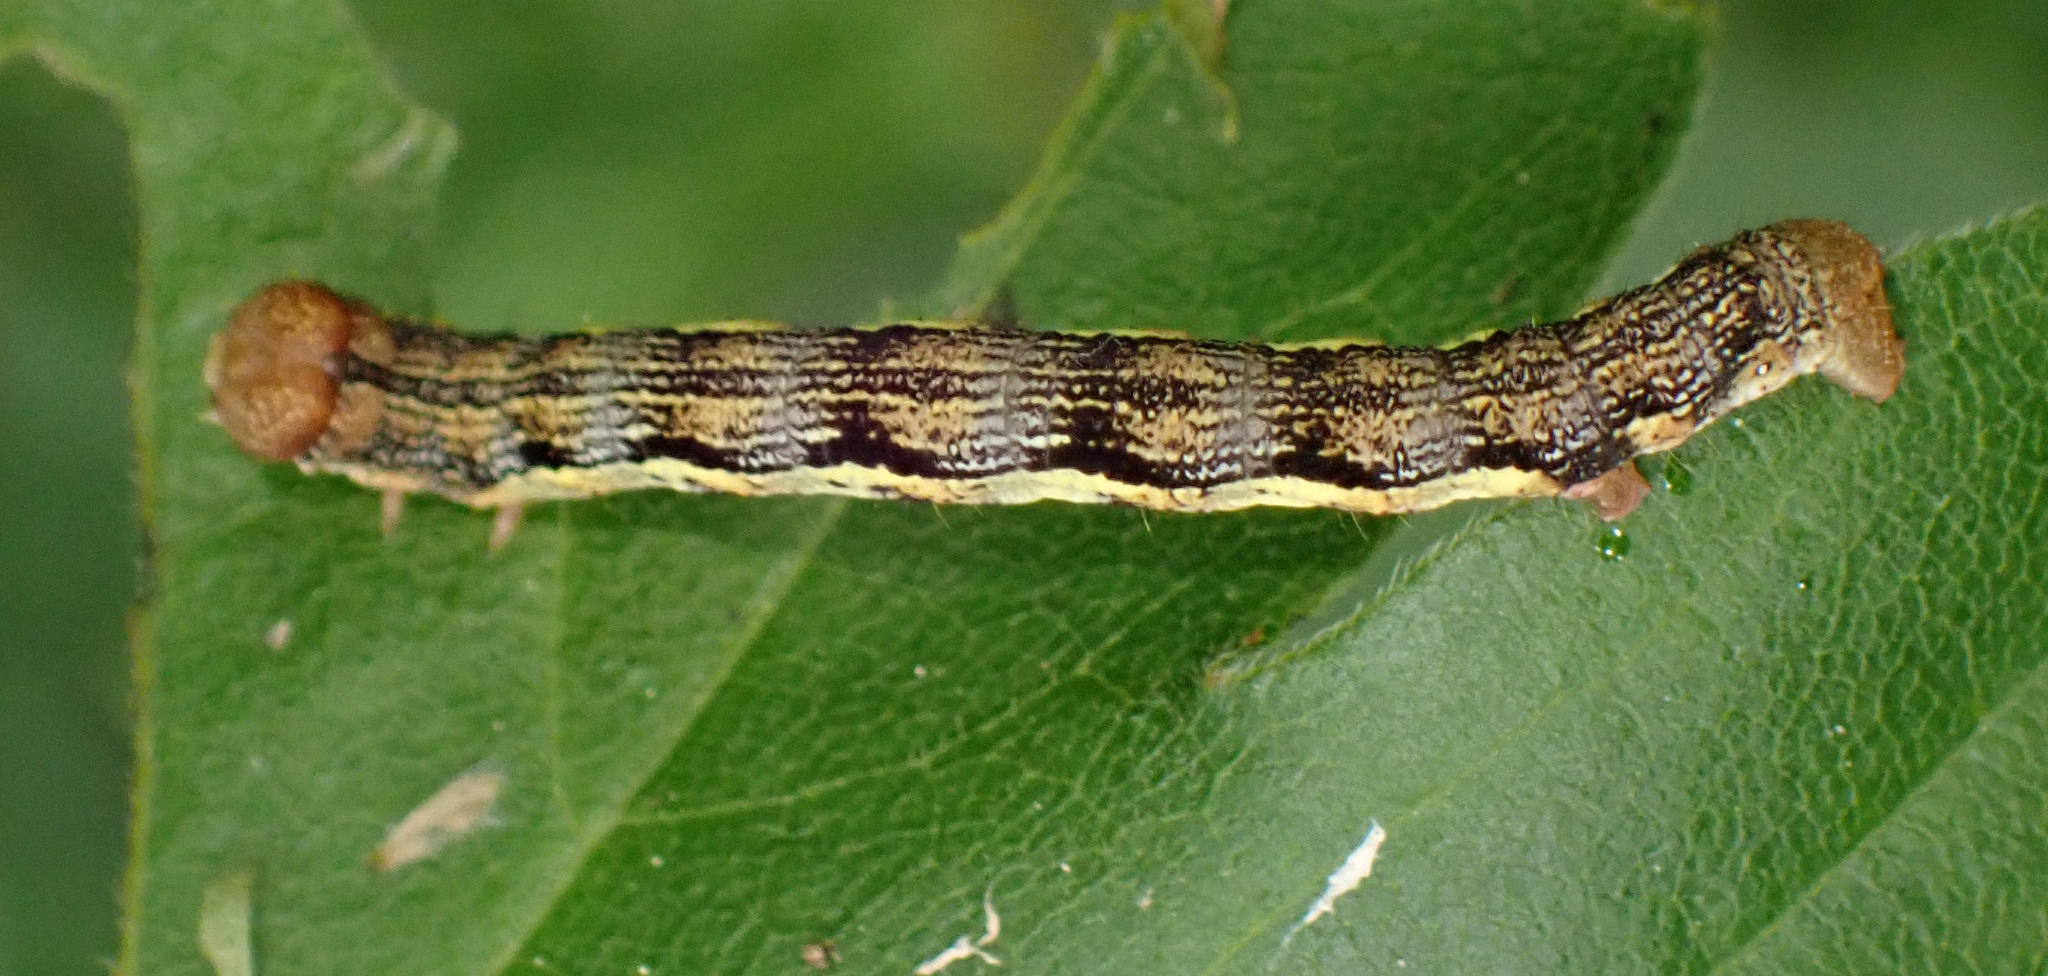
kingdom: Animalia
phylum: Arthropoda
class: Insecta
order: Lepidoptera
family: Geometridae
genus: Erannis
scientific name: Erannis defoliaria
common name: Mottled umber
